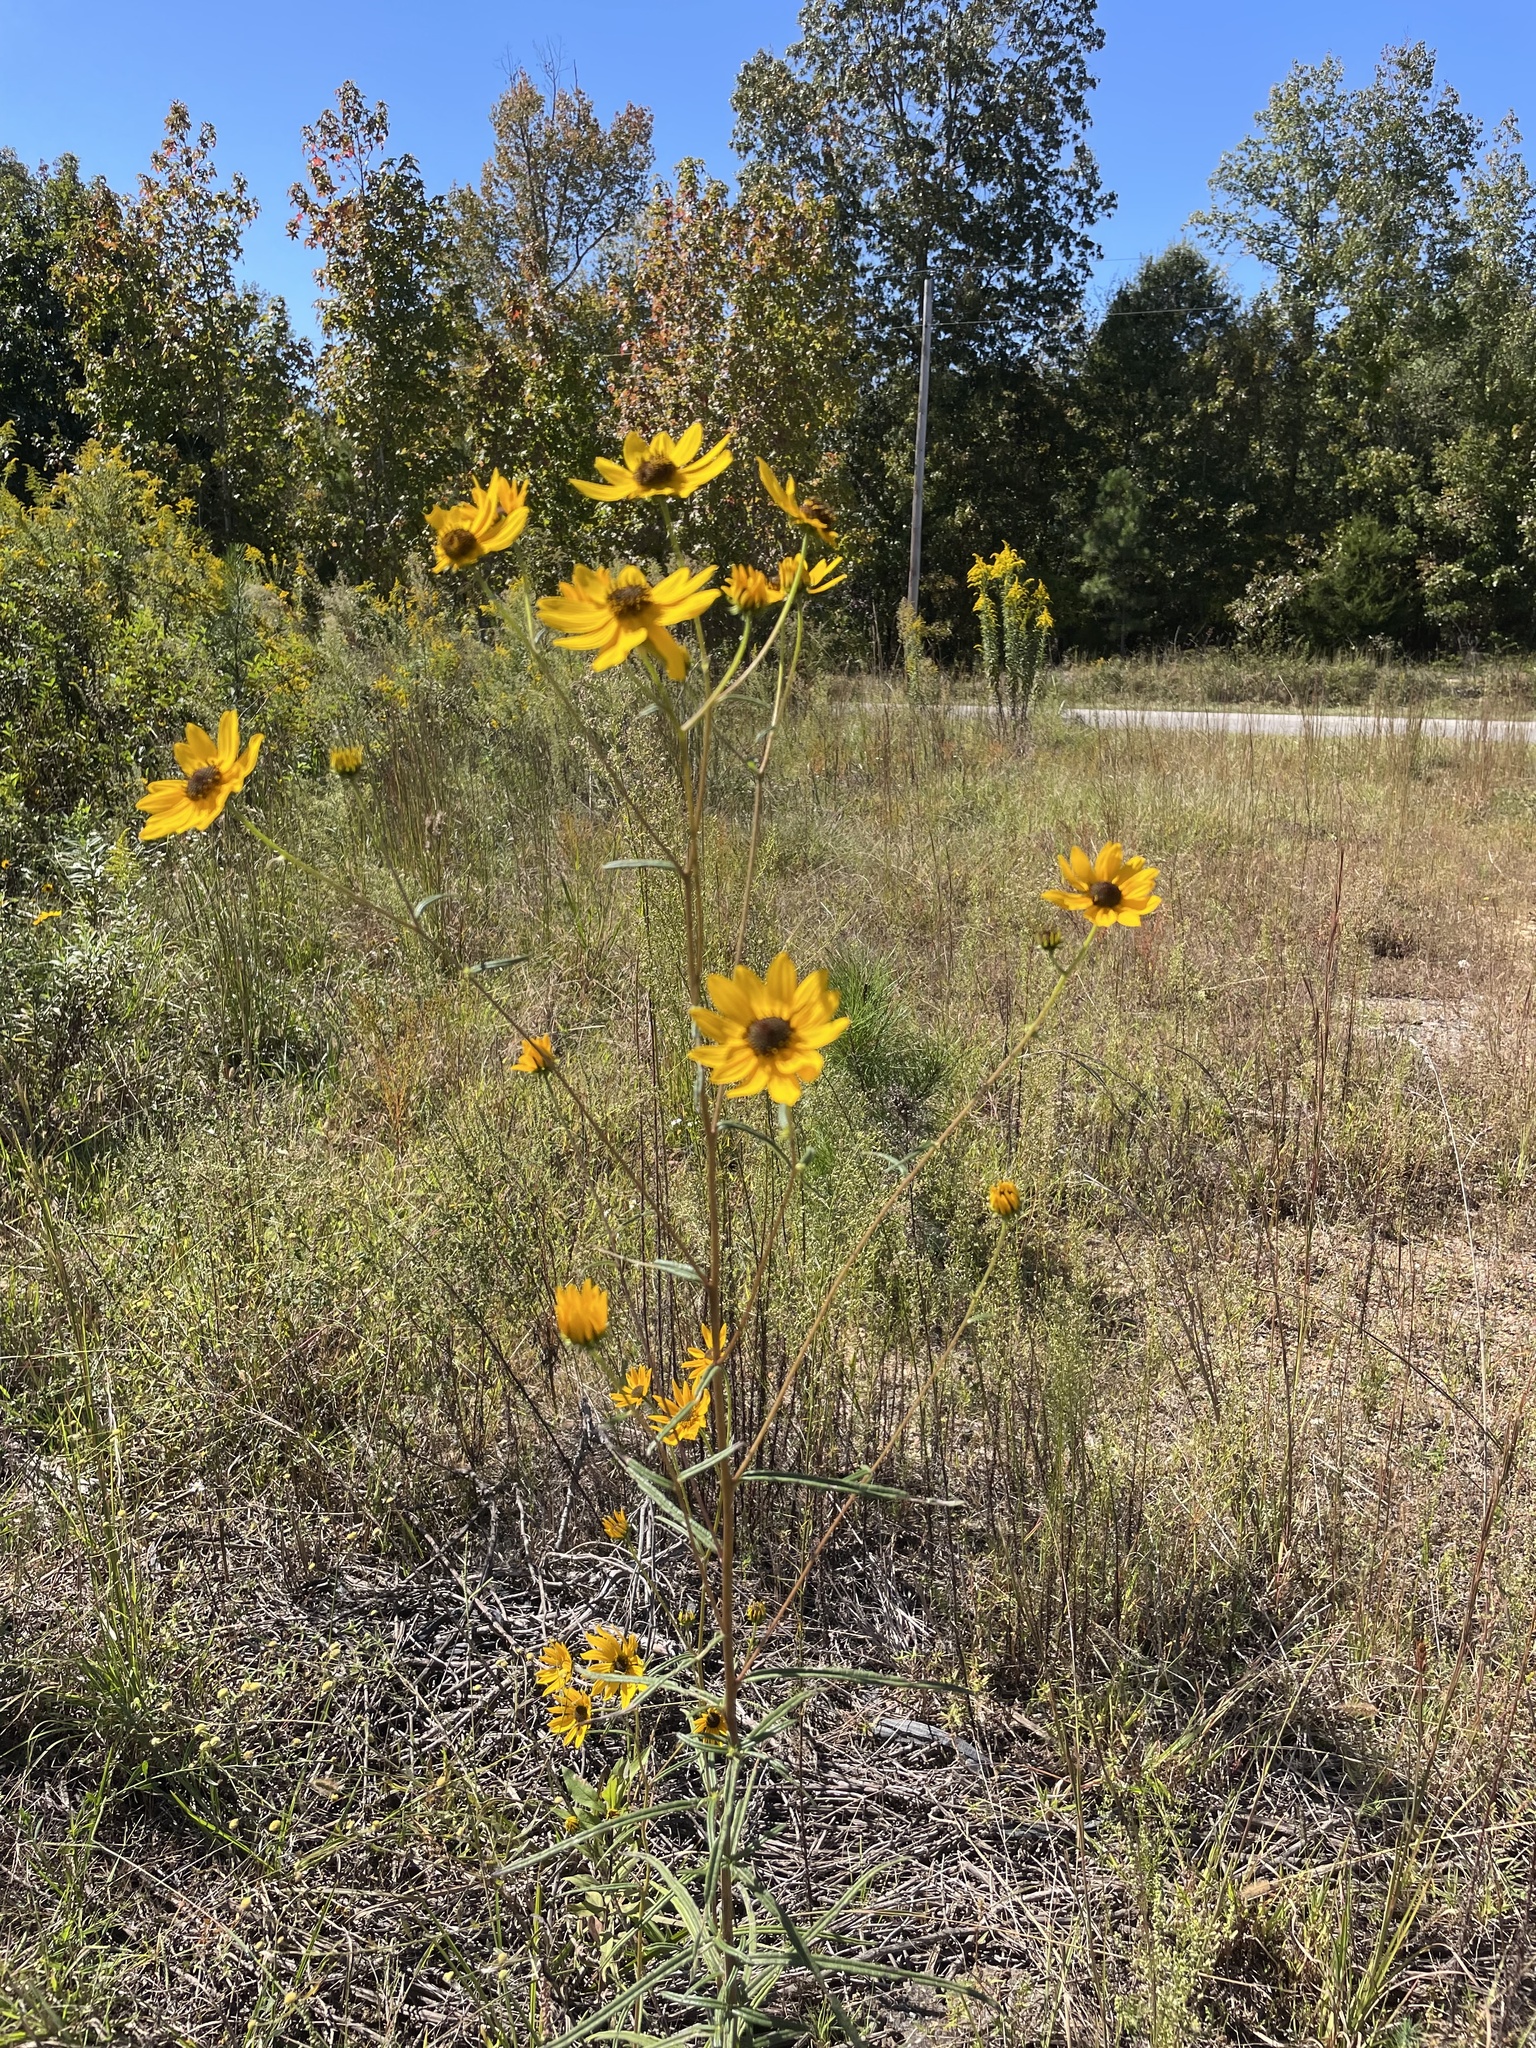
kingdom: Plantae
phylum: Tracheophyta
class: Magnoliopsida
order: Asterales
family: Asteraceae
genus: Helianthus
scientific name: Helianthus angustifolius
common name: Swamp sunflower
